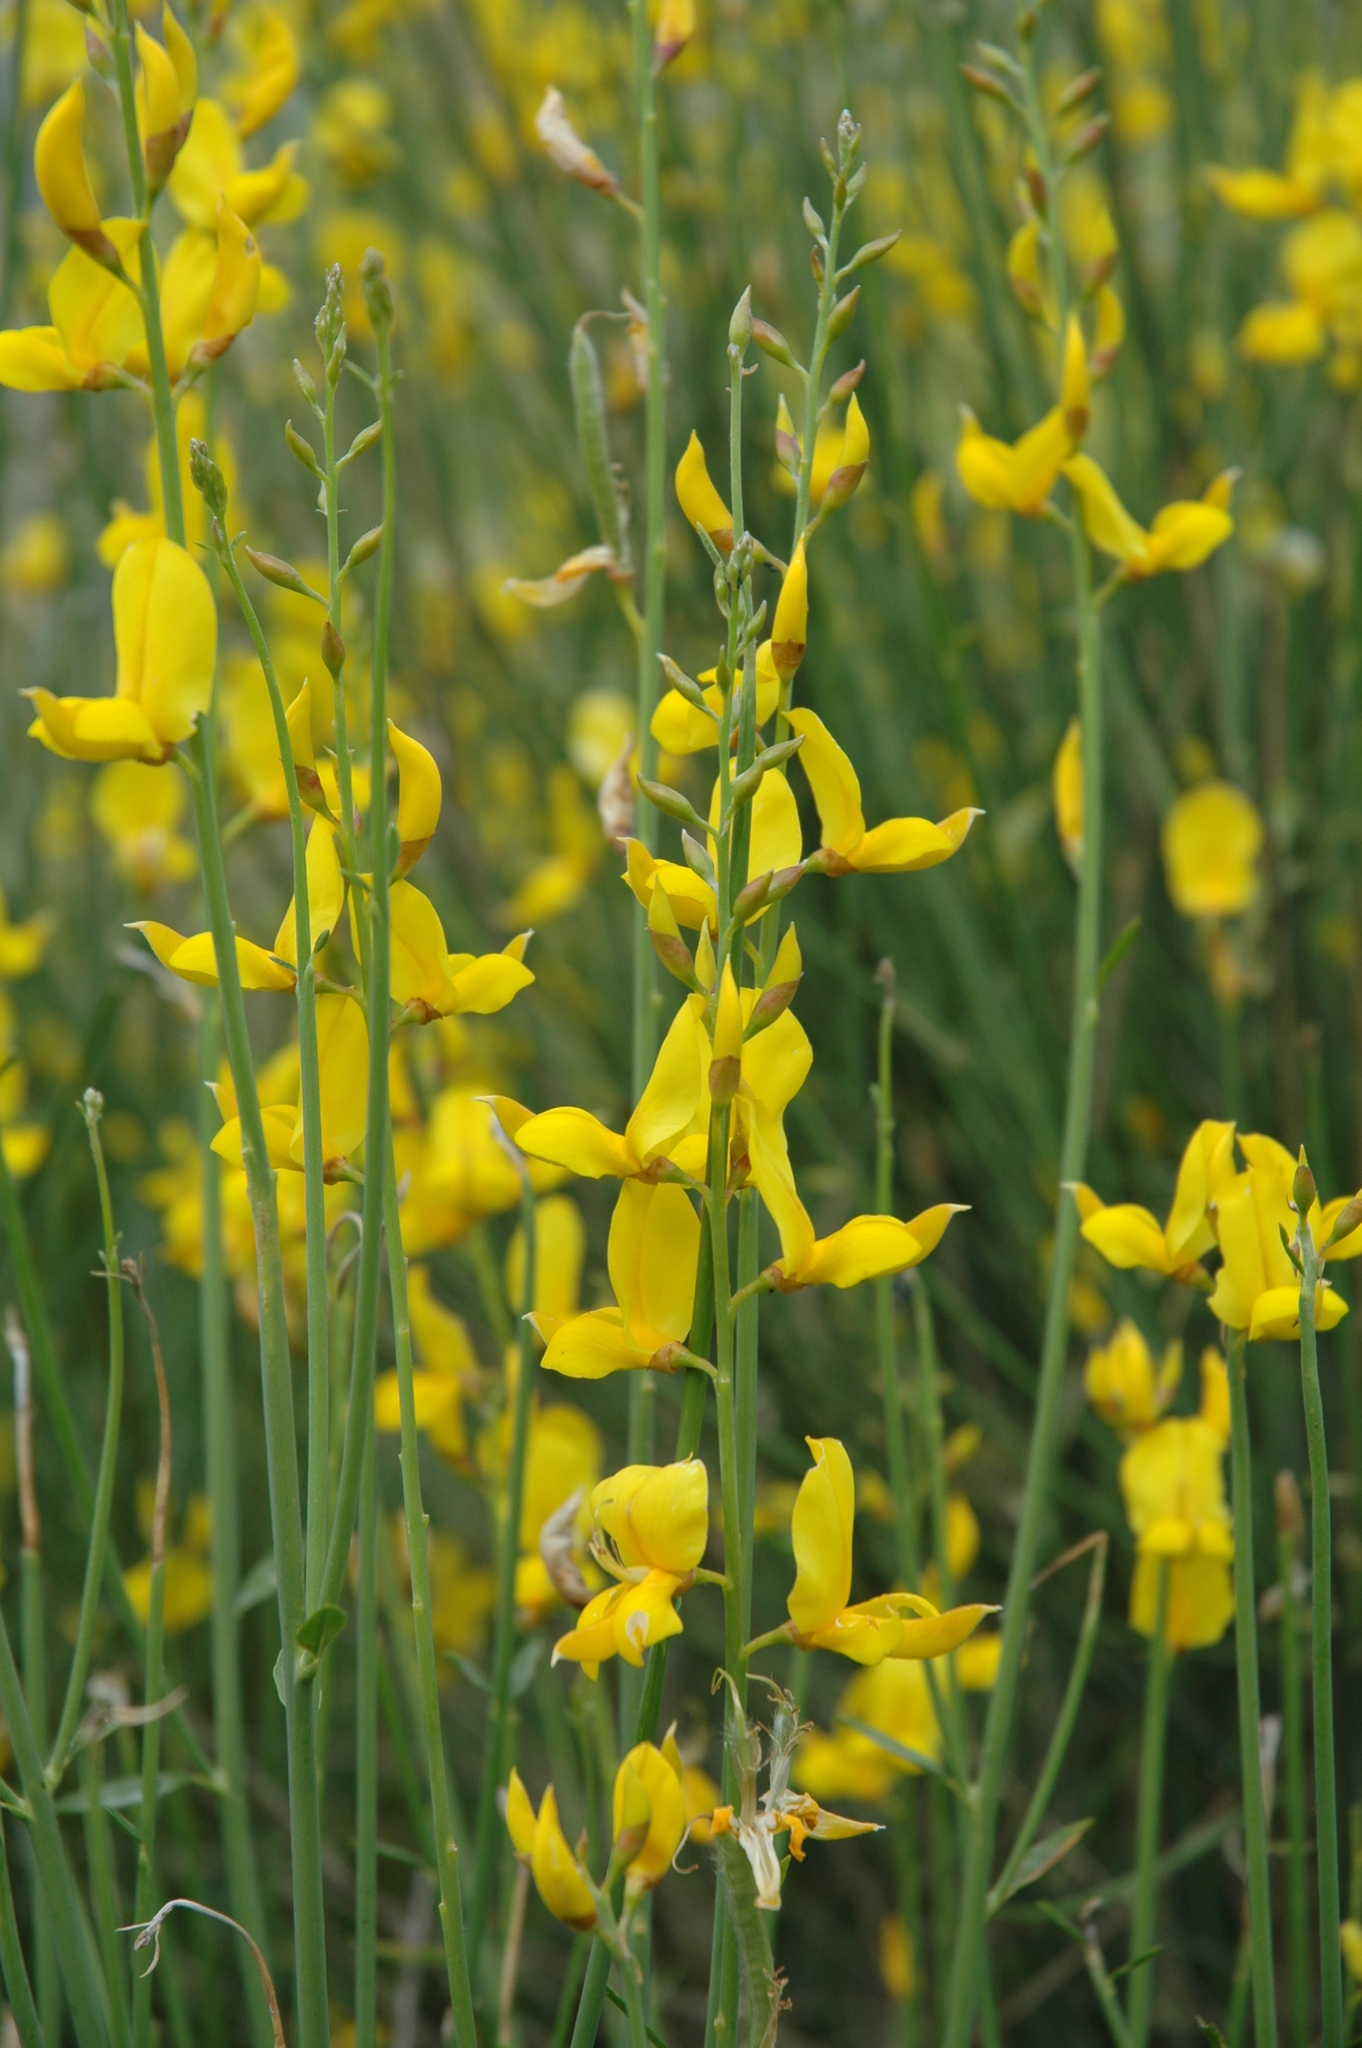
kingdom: Plantae
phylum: Tracheophyta
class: Magnoliopsida
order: Fabales
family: Fabaceae
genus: Spartium
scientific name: Spartium junceum
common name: Spanish broom
